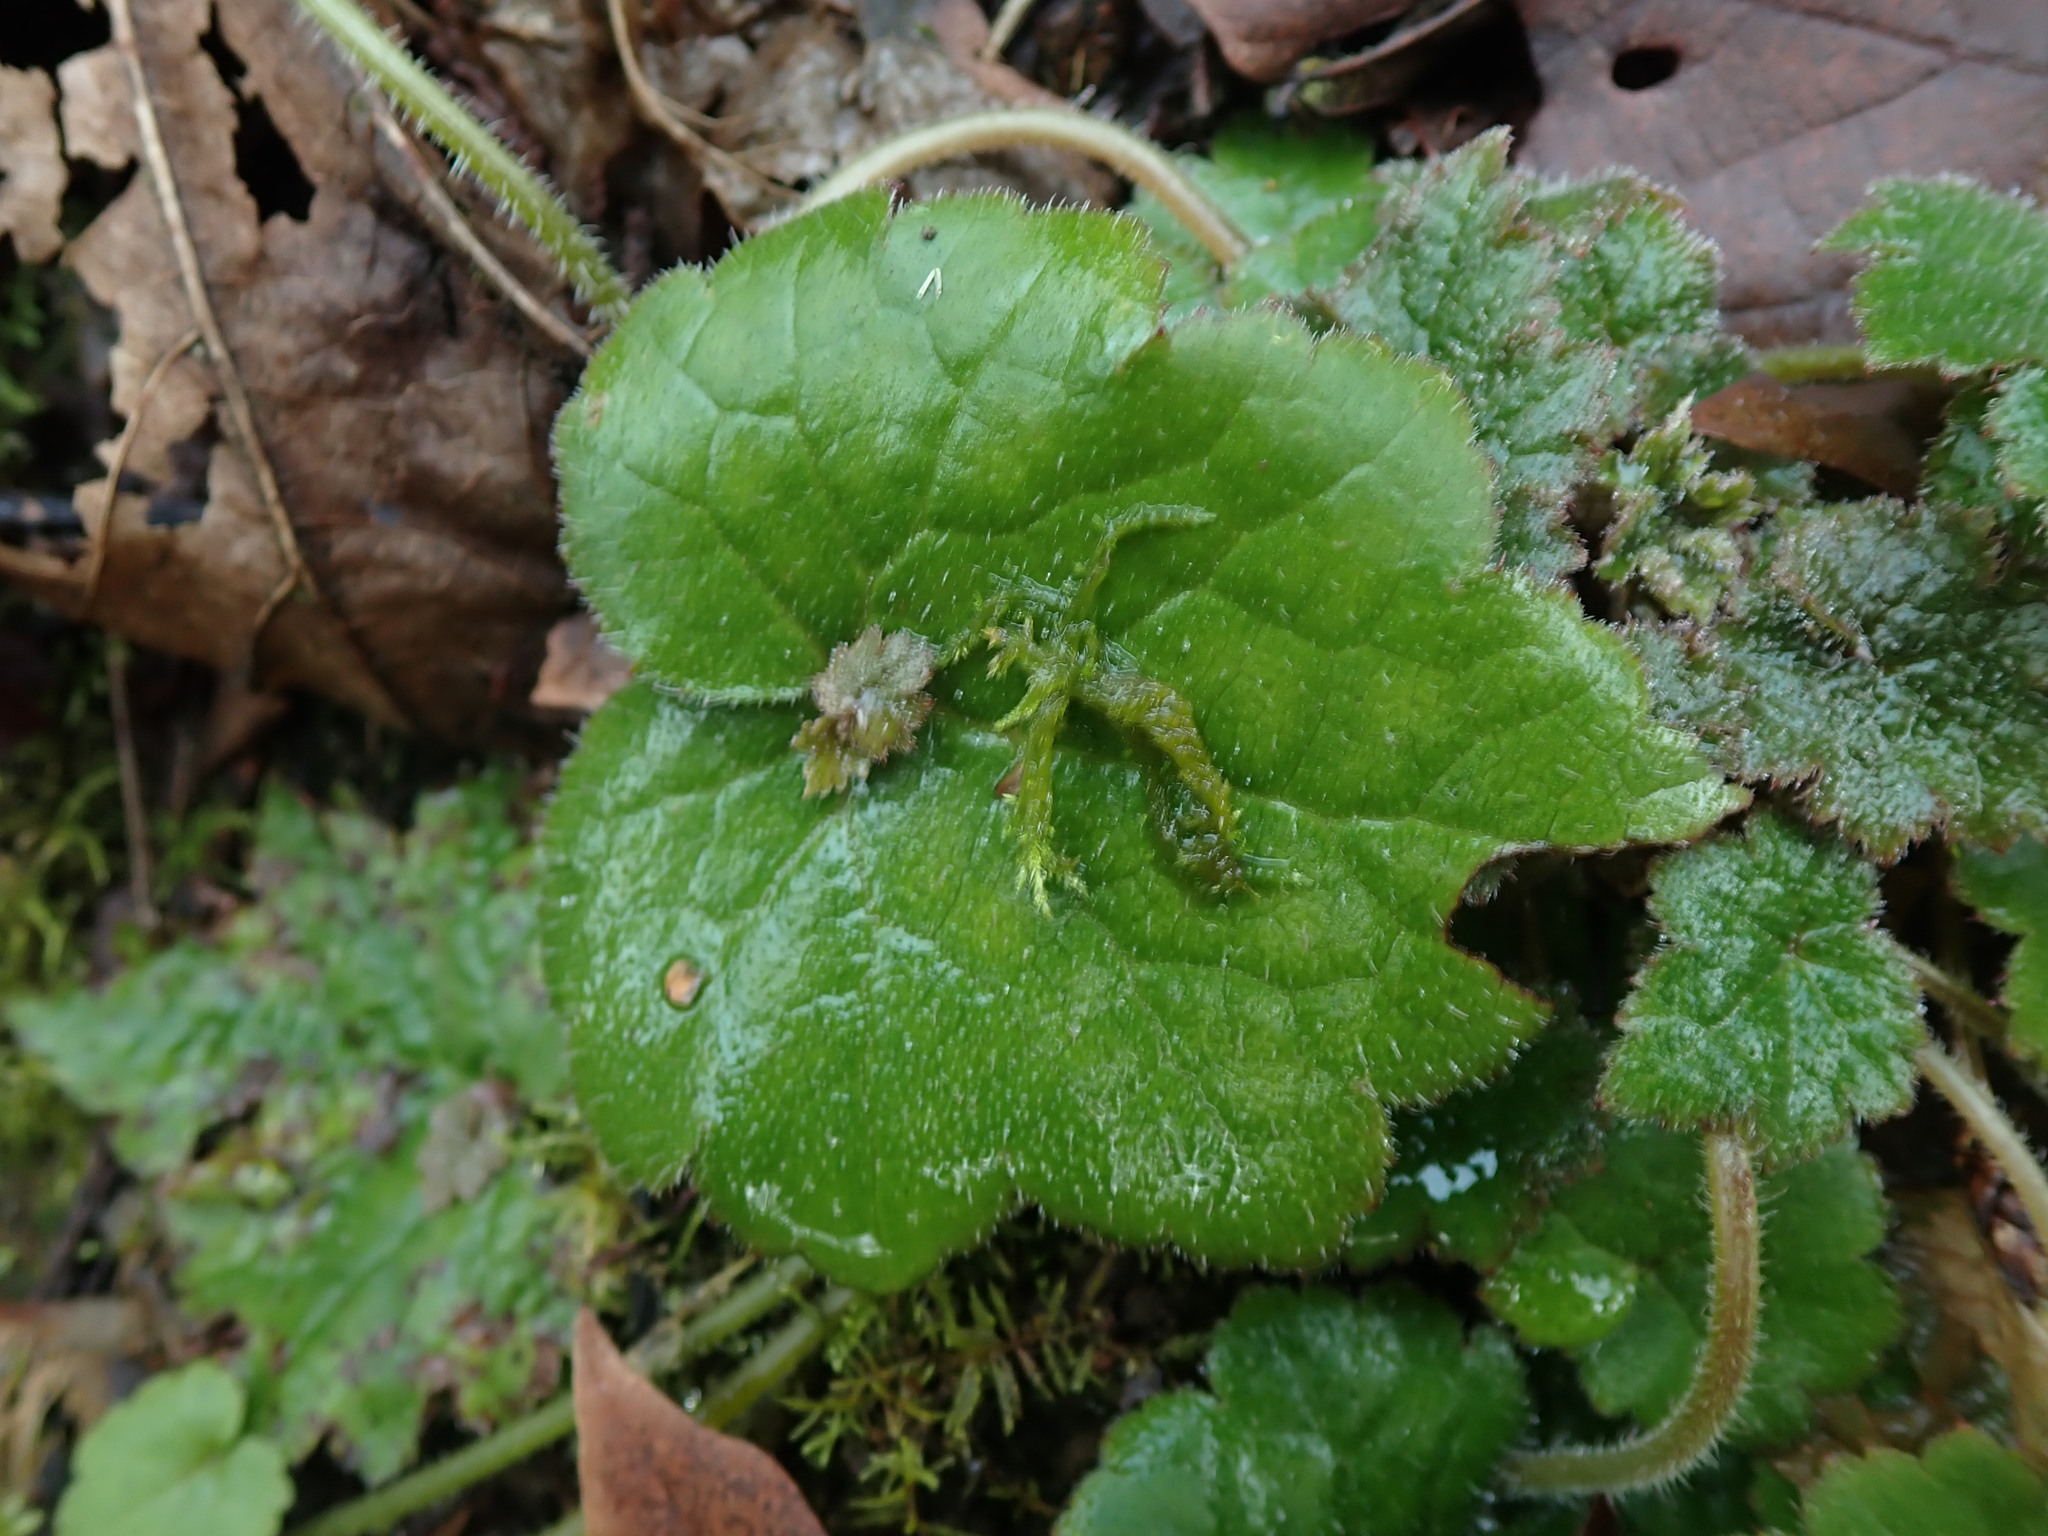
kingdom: Plantae
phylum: Tracheophyta
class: Magnoliopsida
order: Saxifragales
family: Saxifragaceae
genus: Tolmiea
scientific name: Tolmiea menziesii
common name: Pick-a-back-plant
